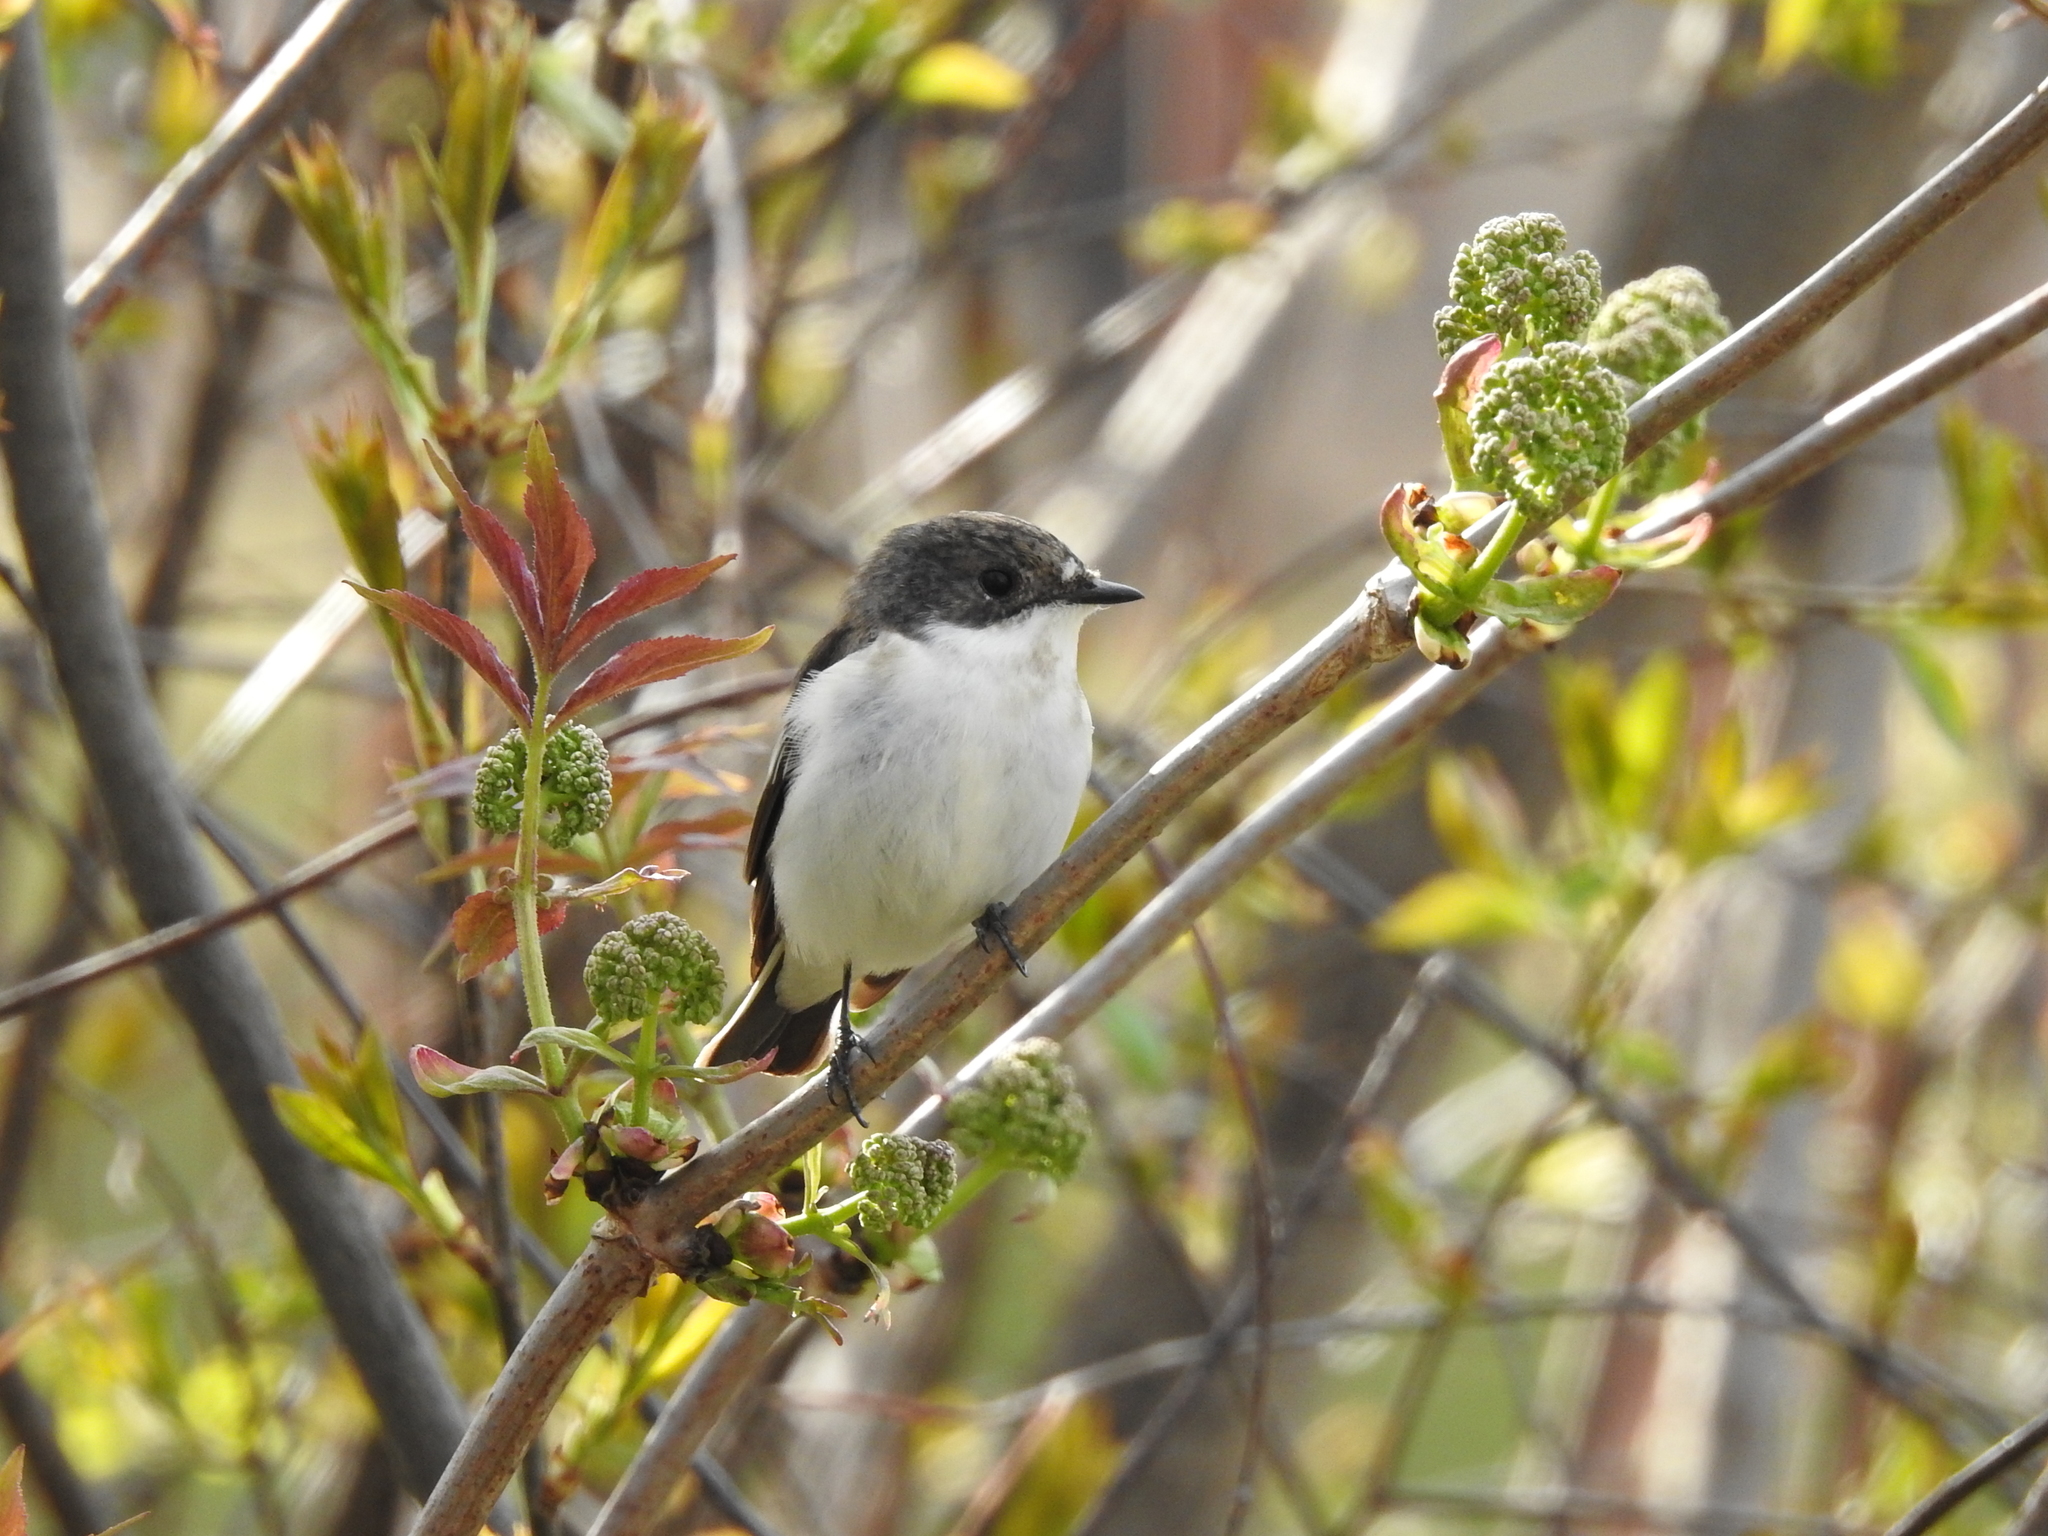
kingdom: Animalia
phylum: Chordata
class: Aves
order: Passeriformes
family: Muscicapidae
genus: Ficedula
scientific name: Ficedula hypoleuca
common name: European pied flycatcher
